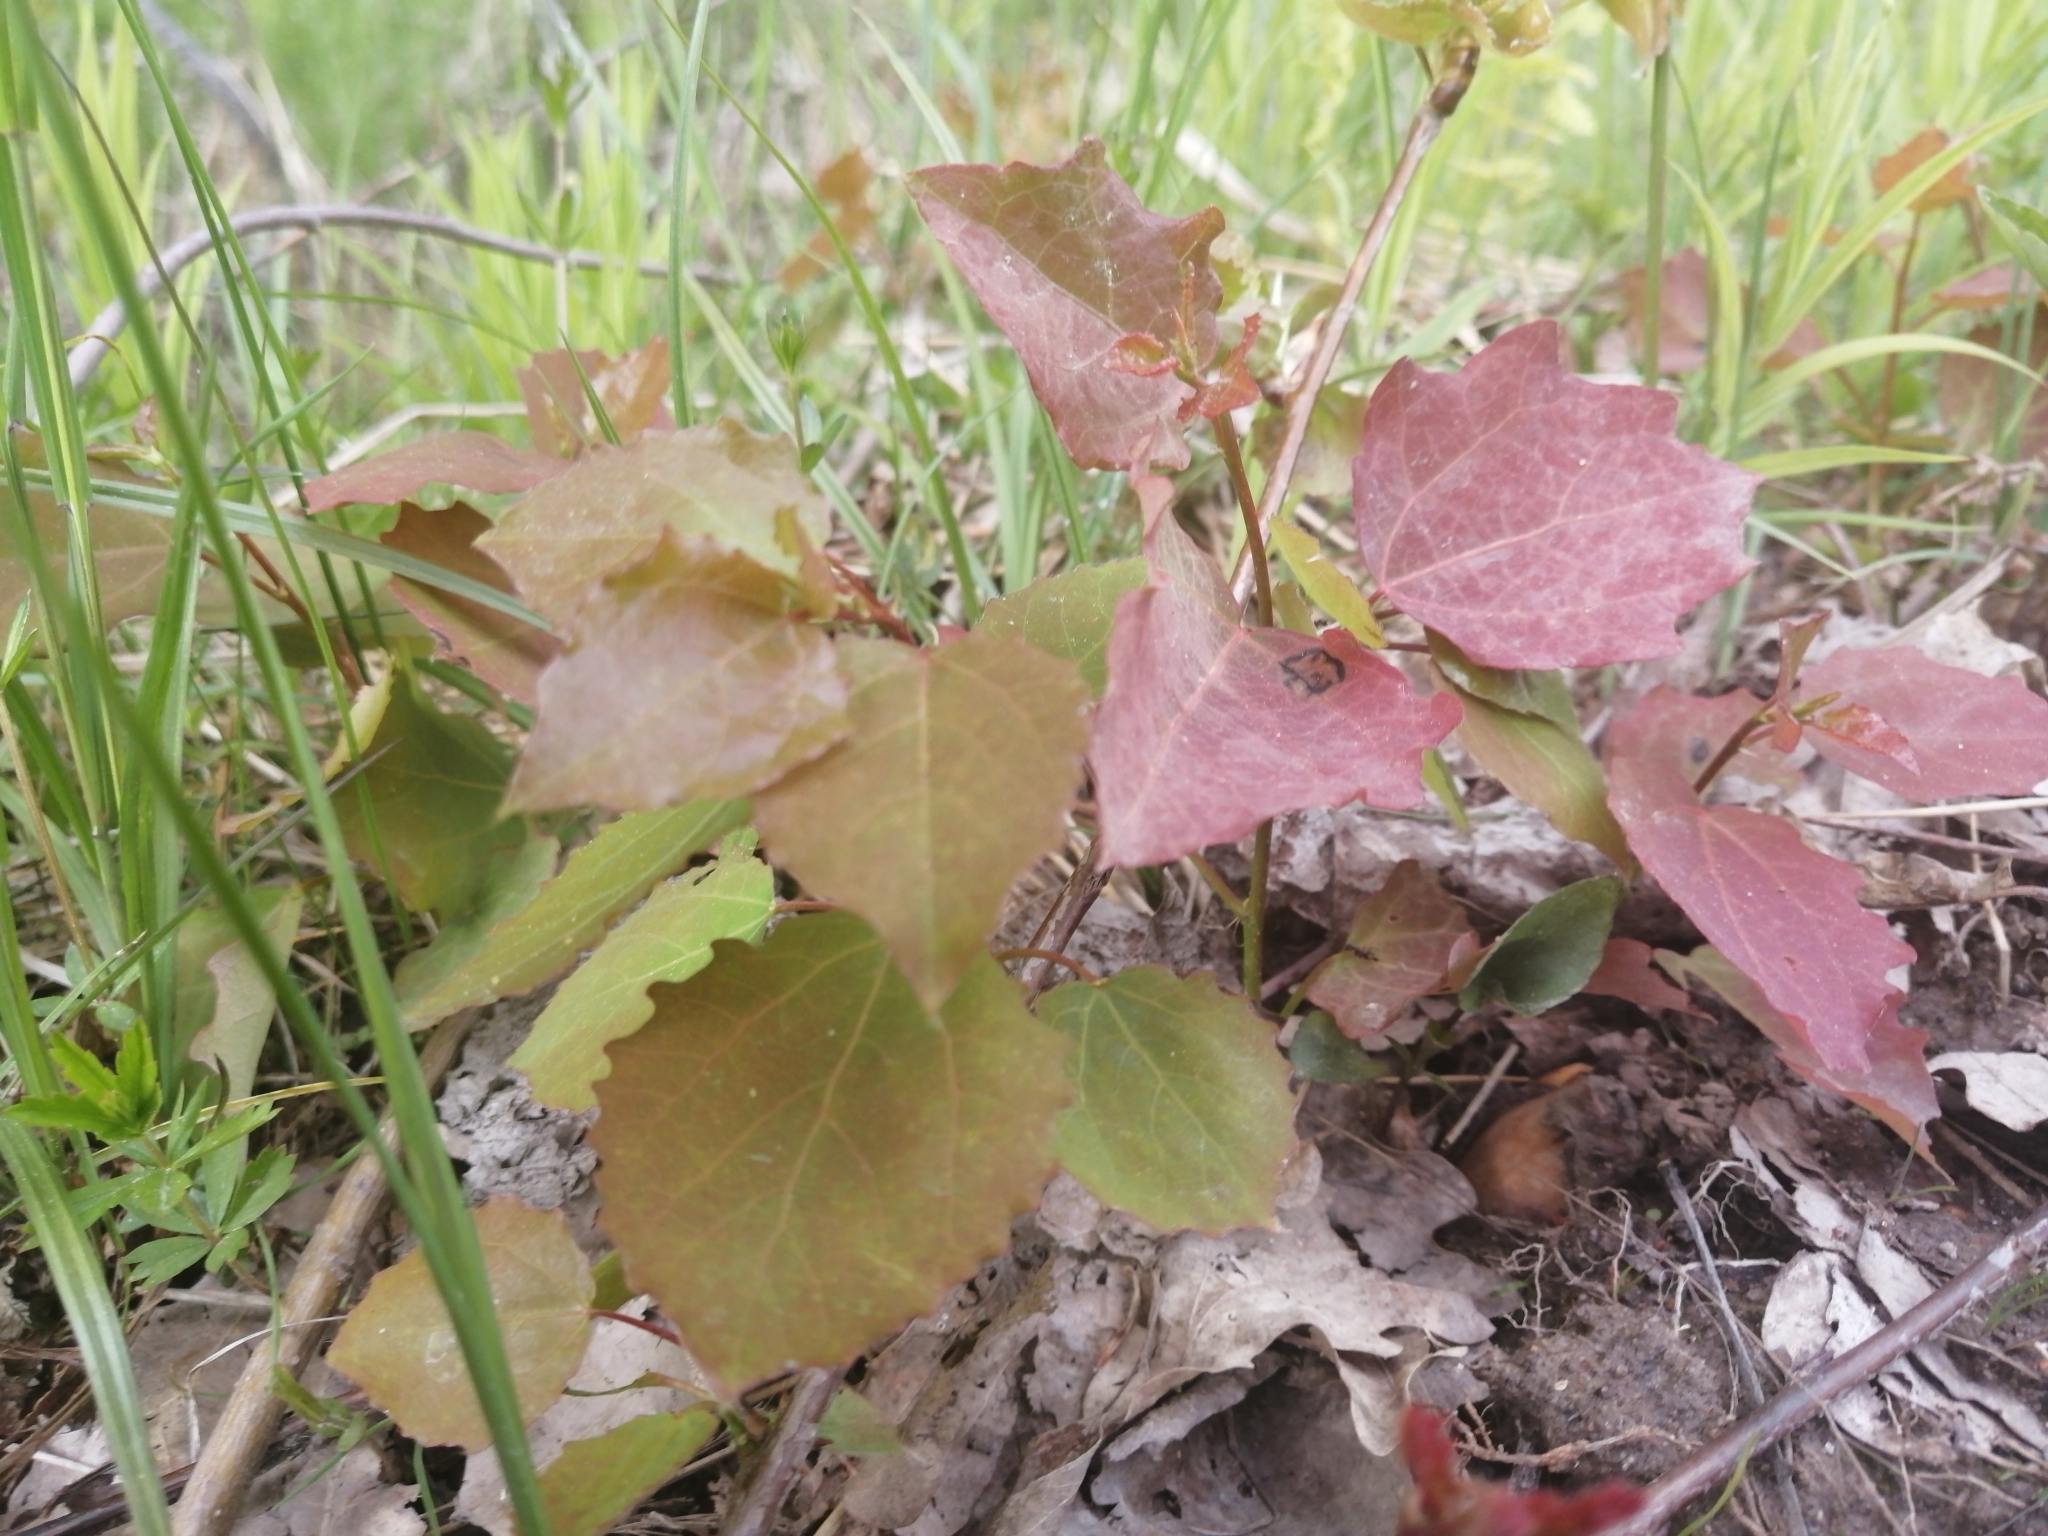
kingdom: Plantae
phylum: Tracheophyta
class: Magnoliopsida
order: Malpighiales
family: Salicaceae
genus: Populus
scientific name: Populus tremula
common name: European aspen
